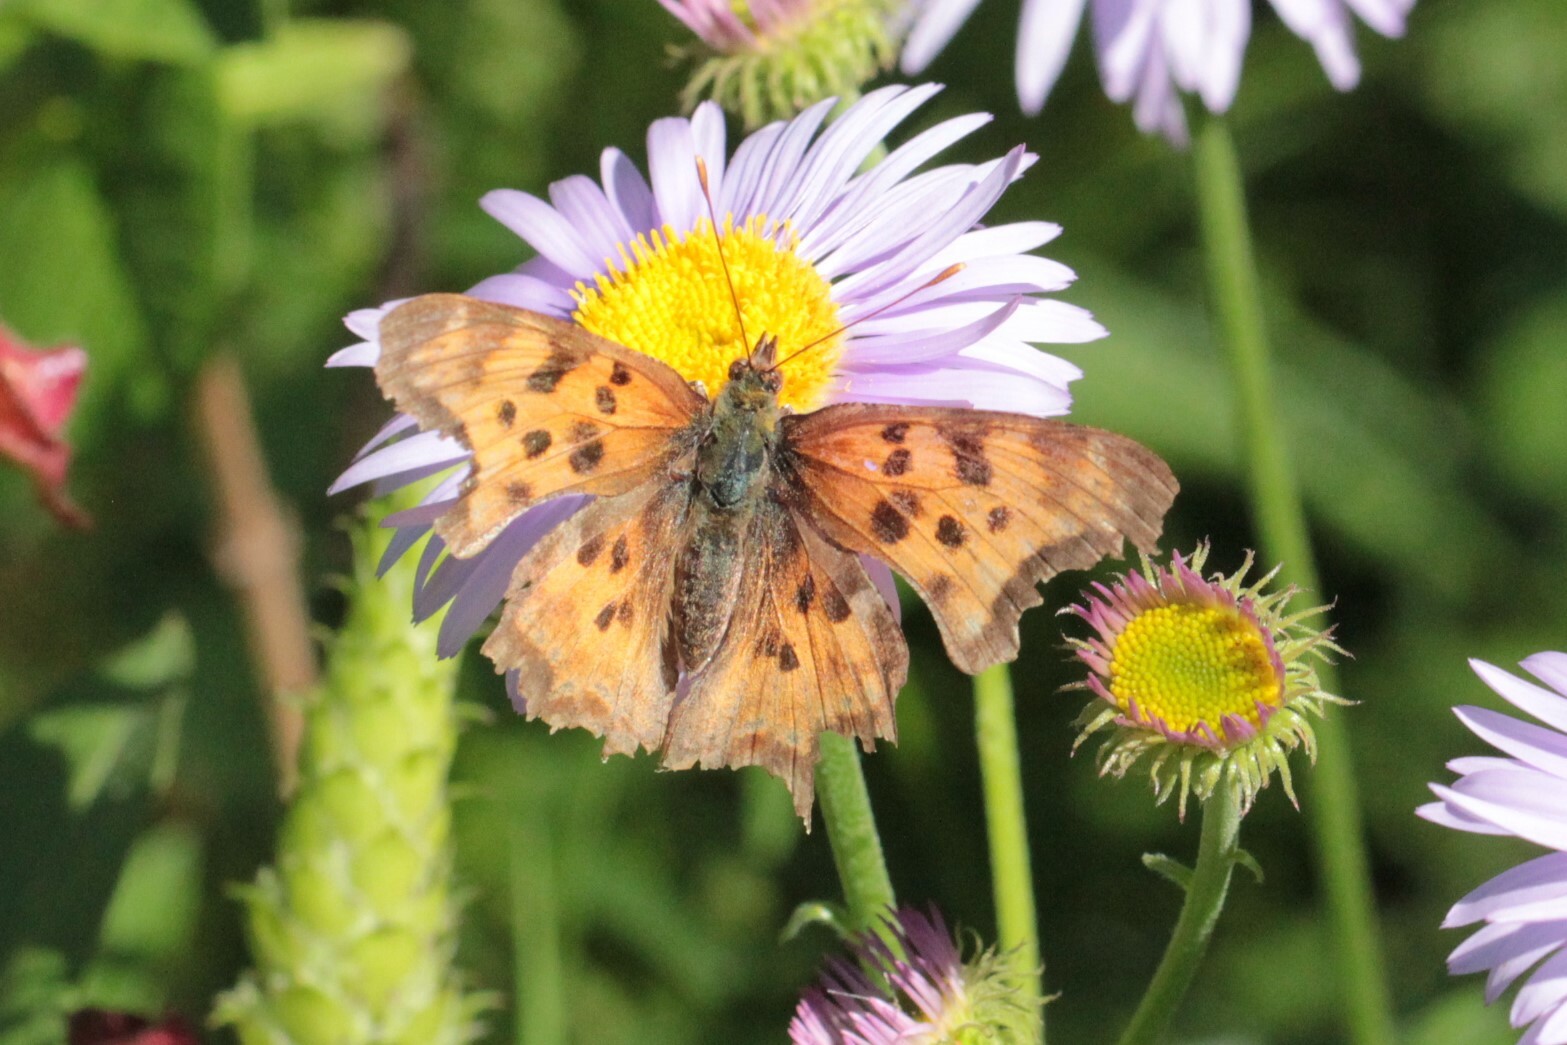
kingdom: Animalia
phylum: Arthropoda
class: Insecta
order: Lepidoptera
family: Nymphalidae
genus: Polygonia
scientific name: Polygonia satyrus
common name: Satyr angle wing
